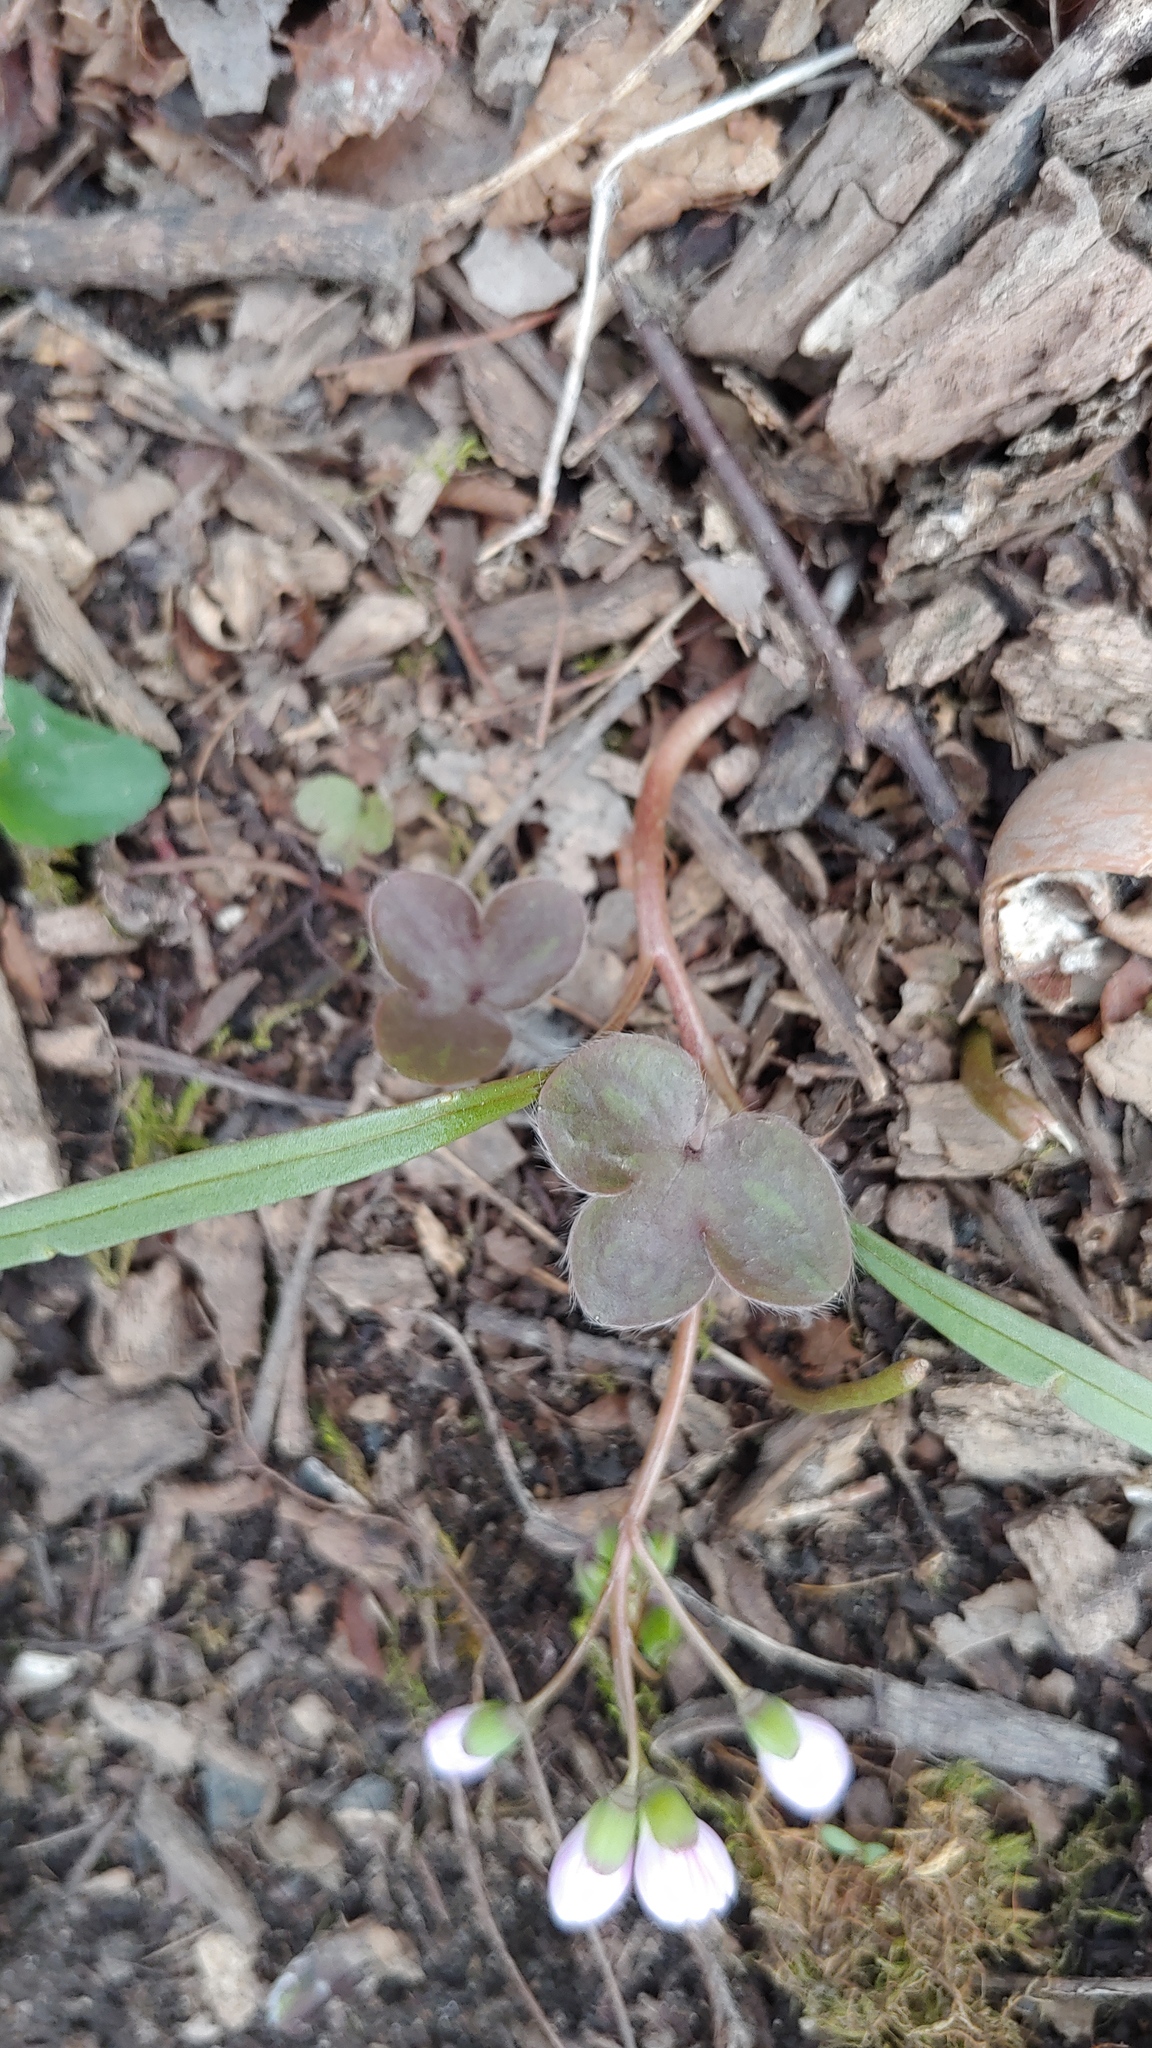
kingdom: Plantae
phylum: Tracheophyta
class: Magnoliopsida
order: Ranunculales
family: Ranunculaceae
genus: Hepatica
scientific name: Hepatica americana
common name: American hepatica
